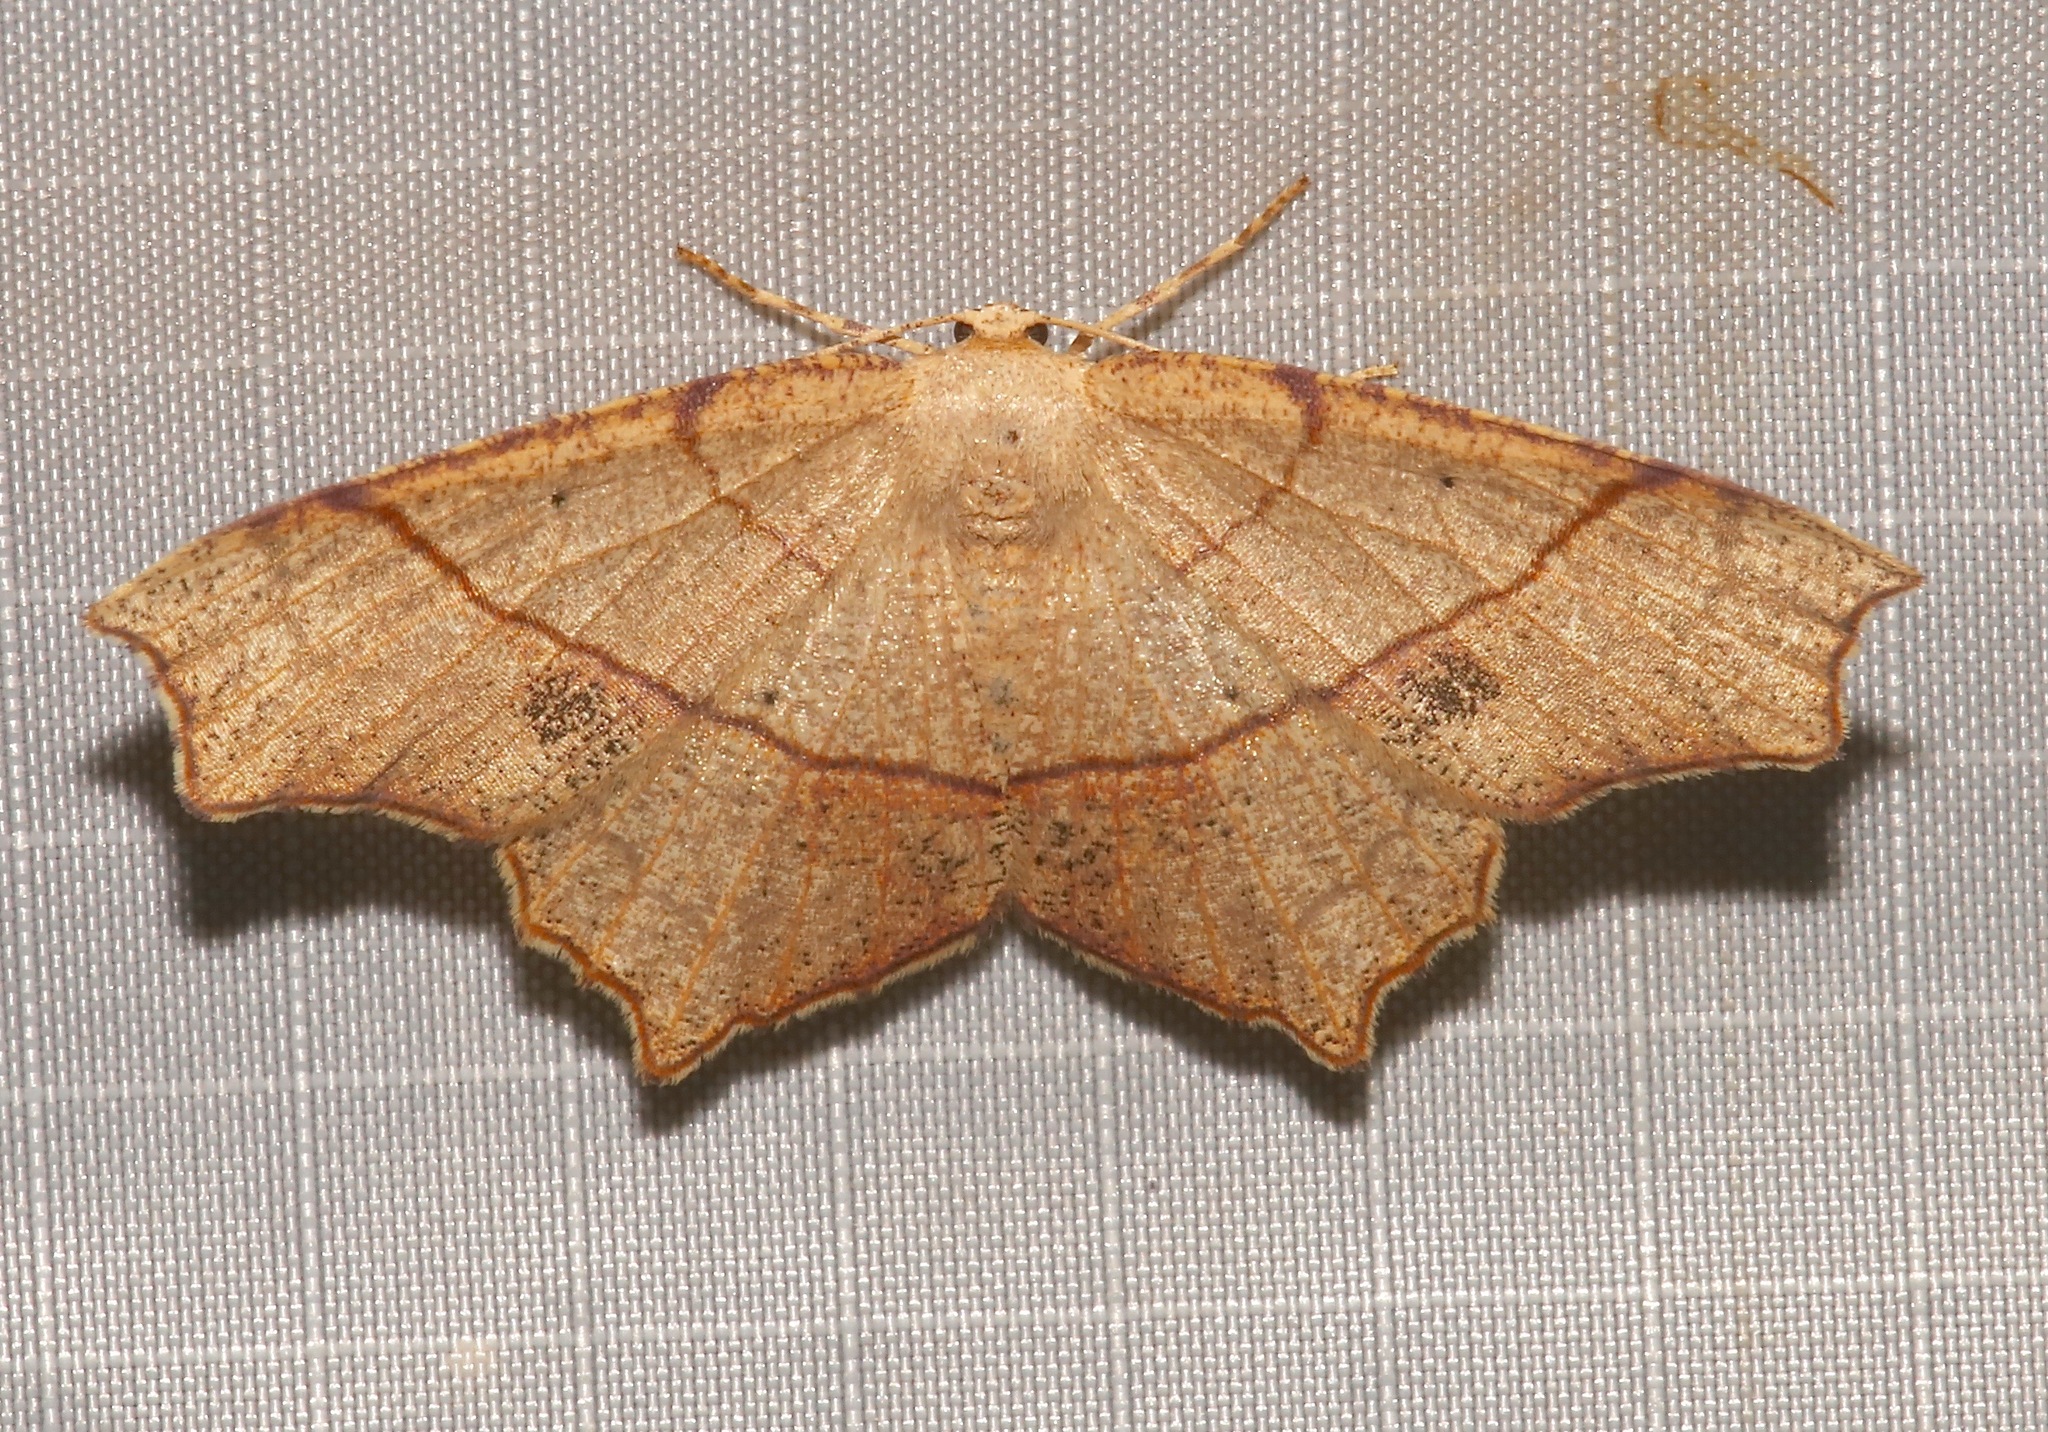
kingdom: Animalia
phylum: Arthropoda
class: Insecta
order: Lepidoptera
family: Geometridae
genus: Besma
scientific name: Besma quercivoraria
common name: Oak besma
